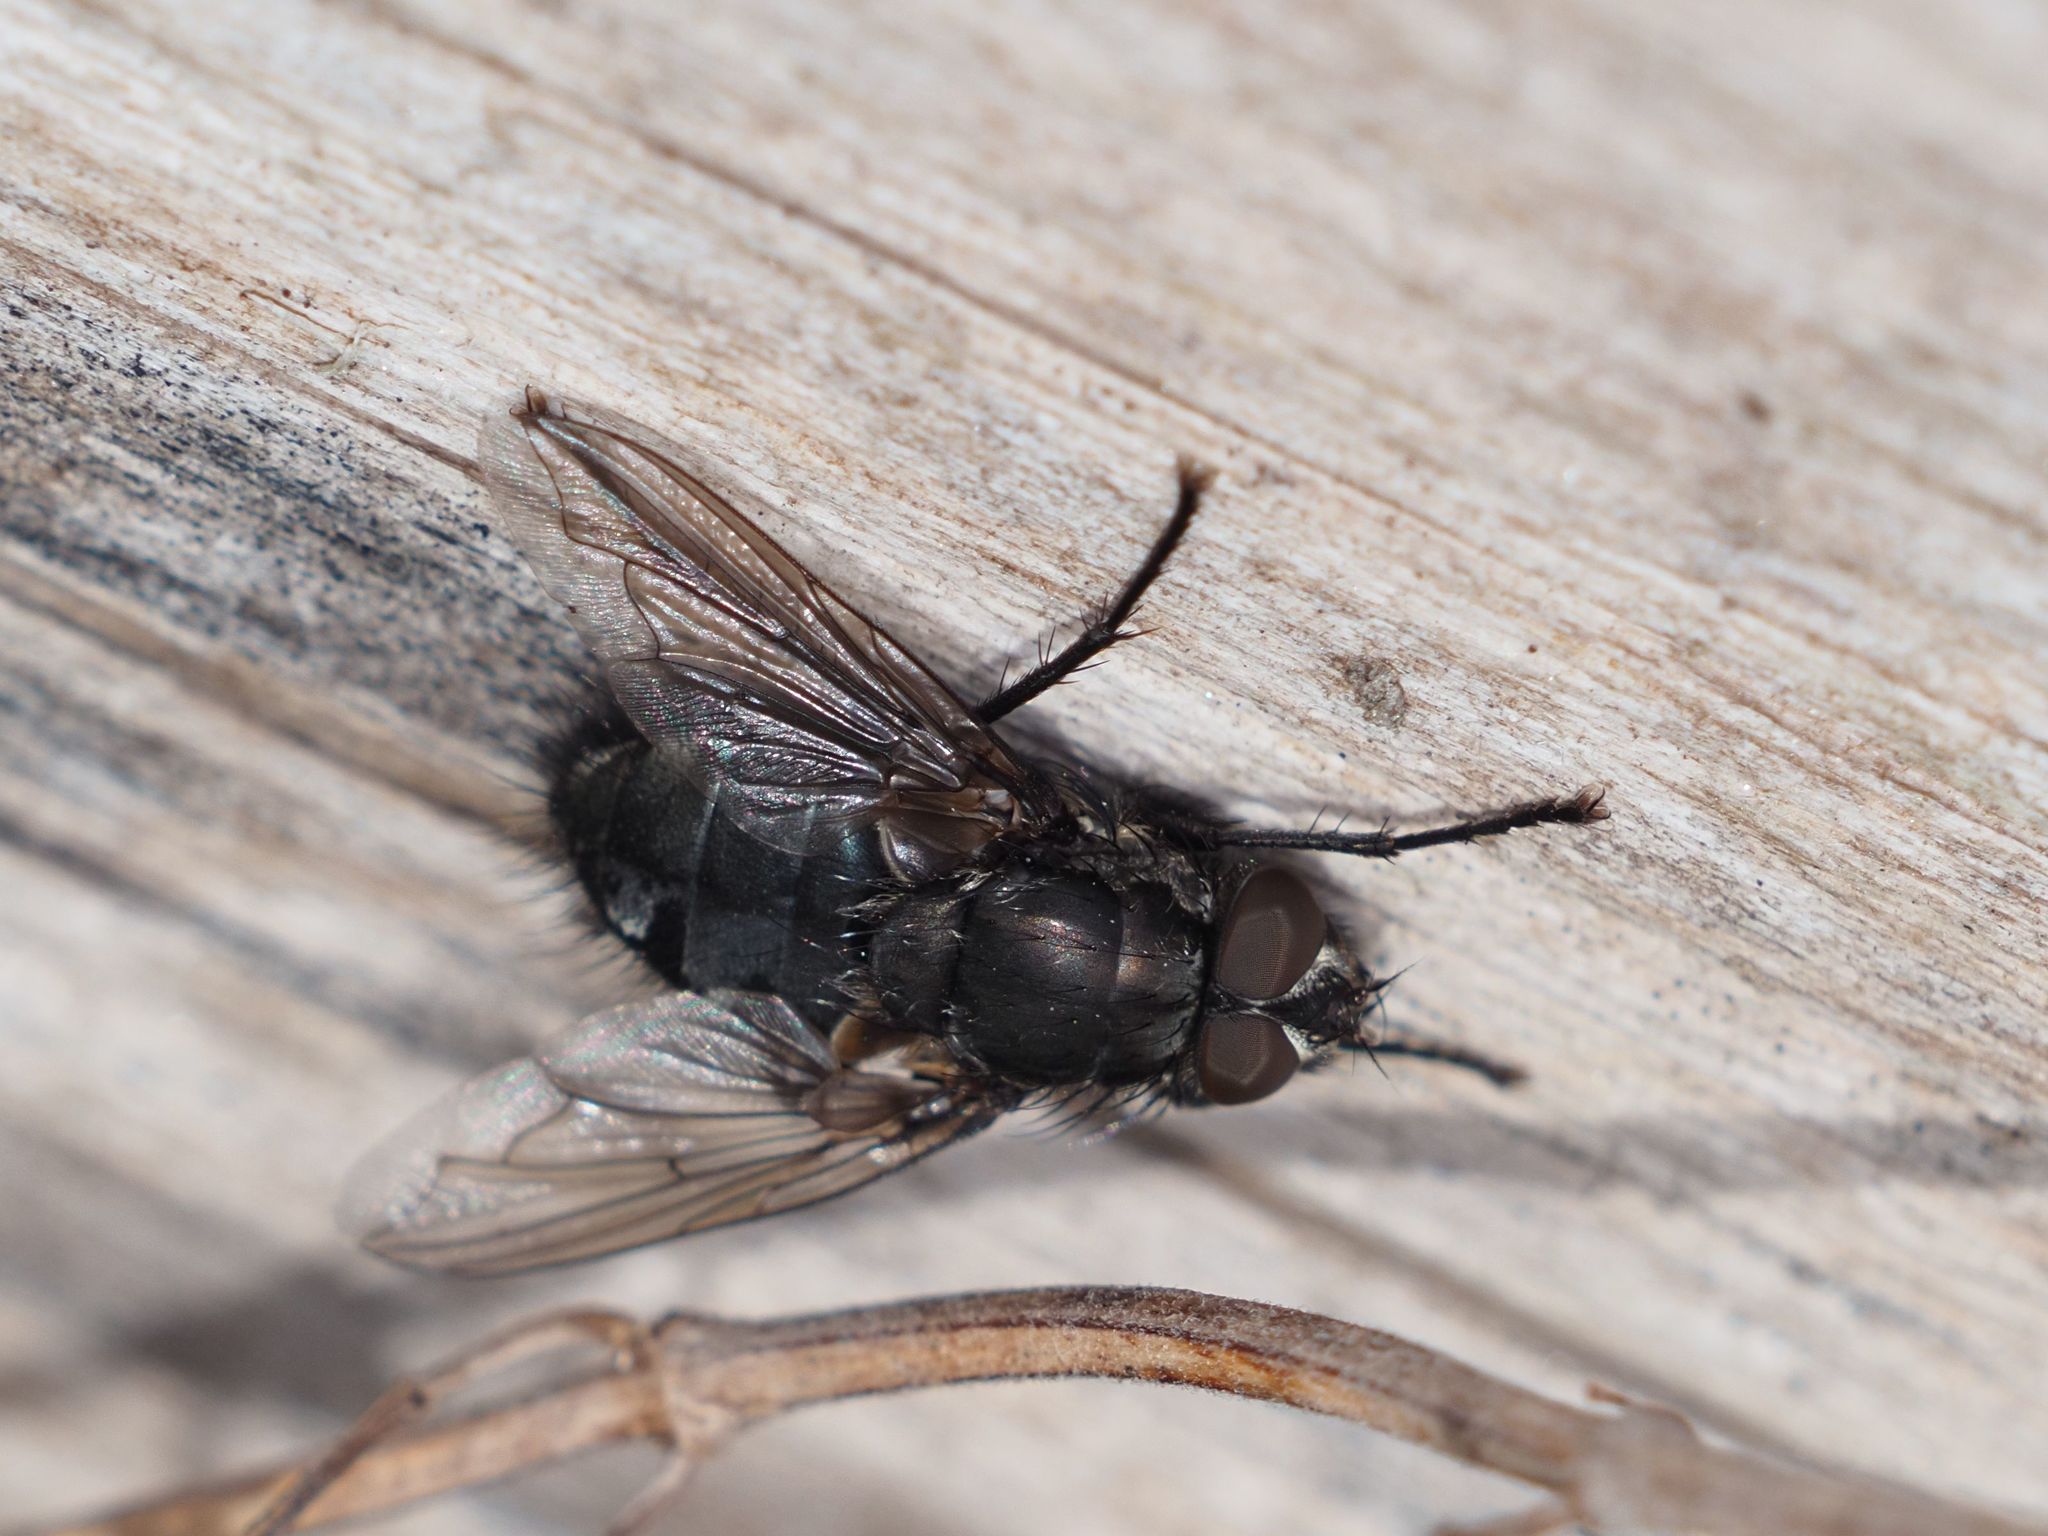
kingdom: Animalia
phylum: Arthropoda
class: Insecta
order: Diptera
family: Polleniidae
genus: Pollenia
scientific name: Pollenia vagabunda
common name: Vagabund cluster fly
